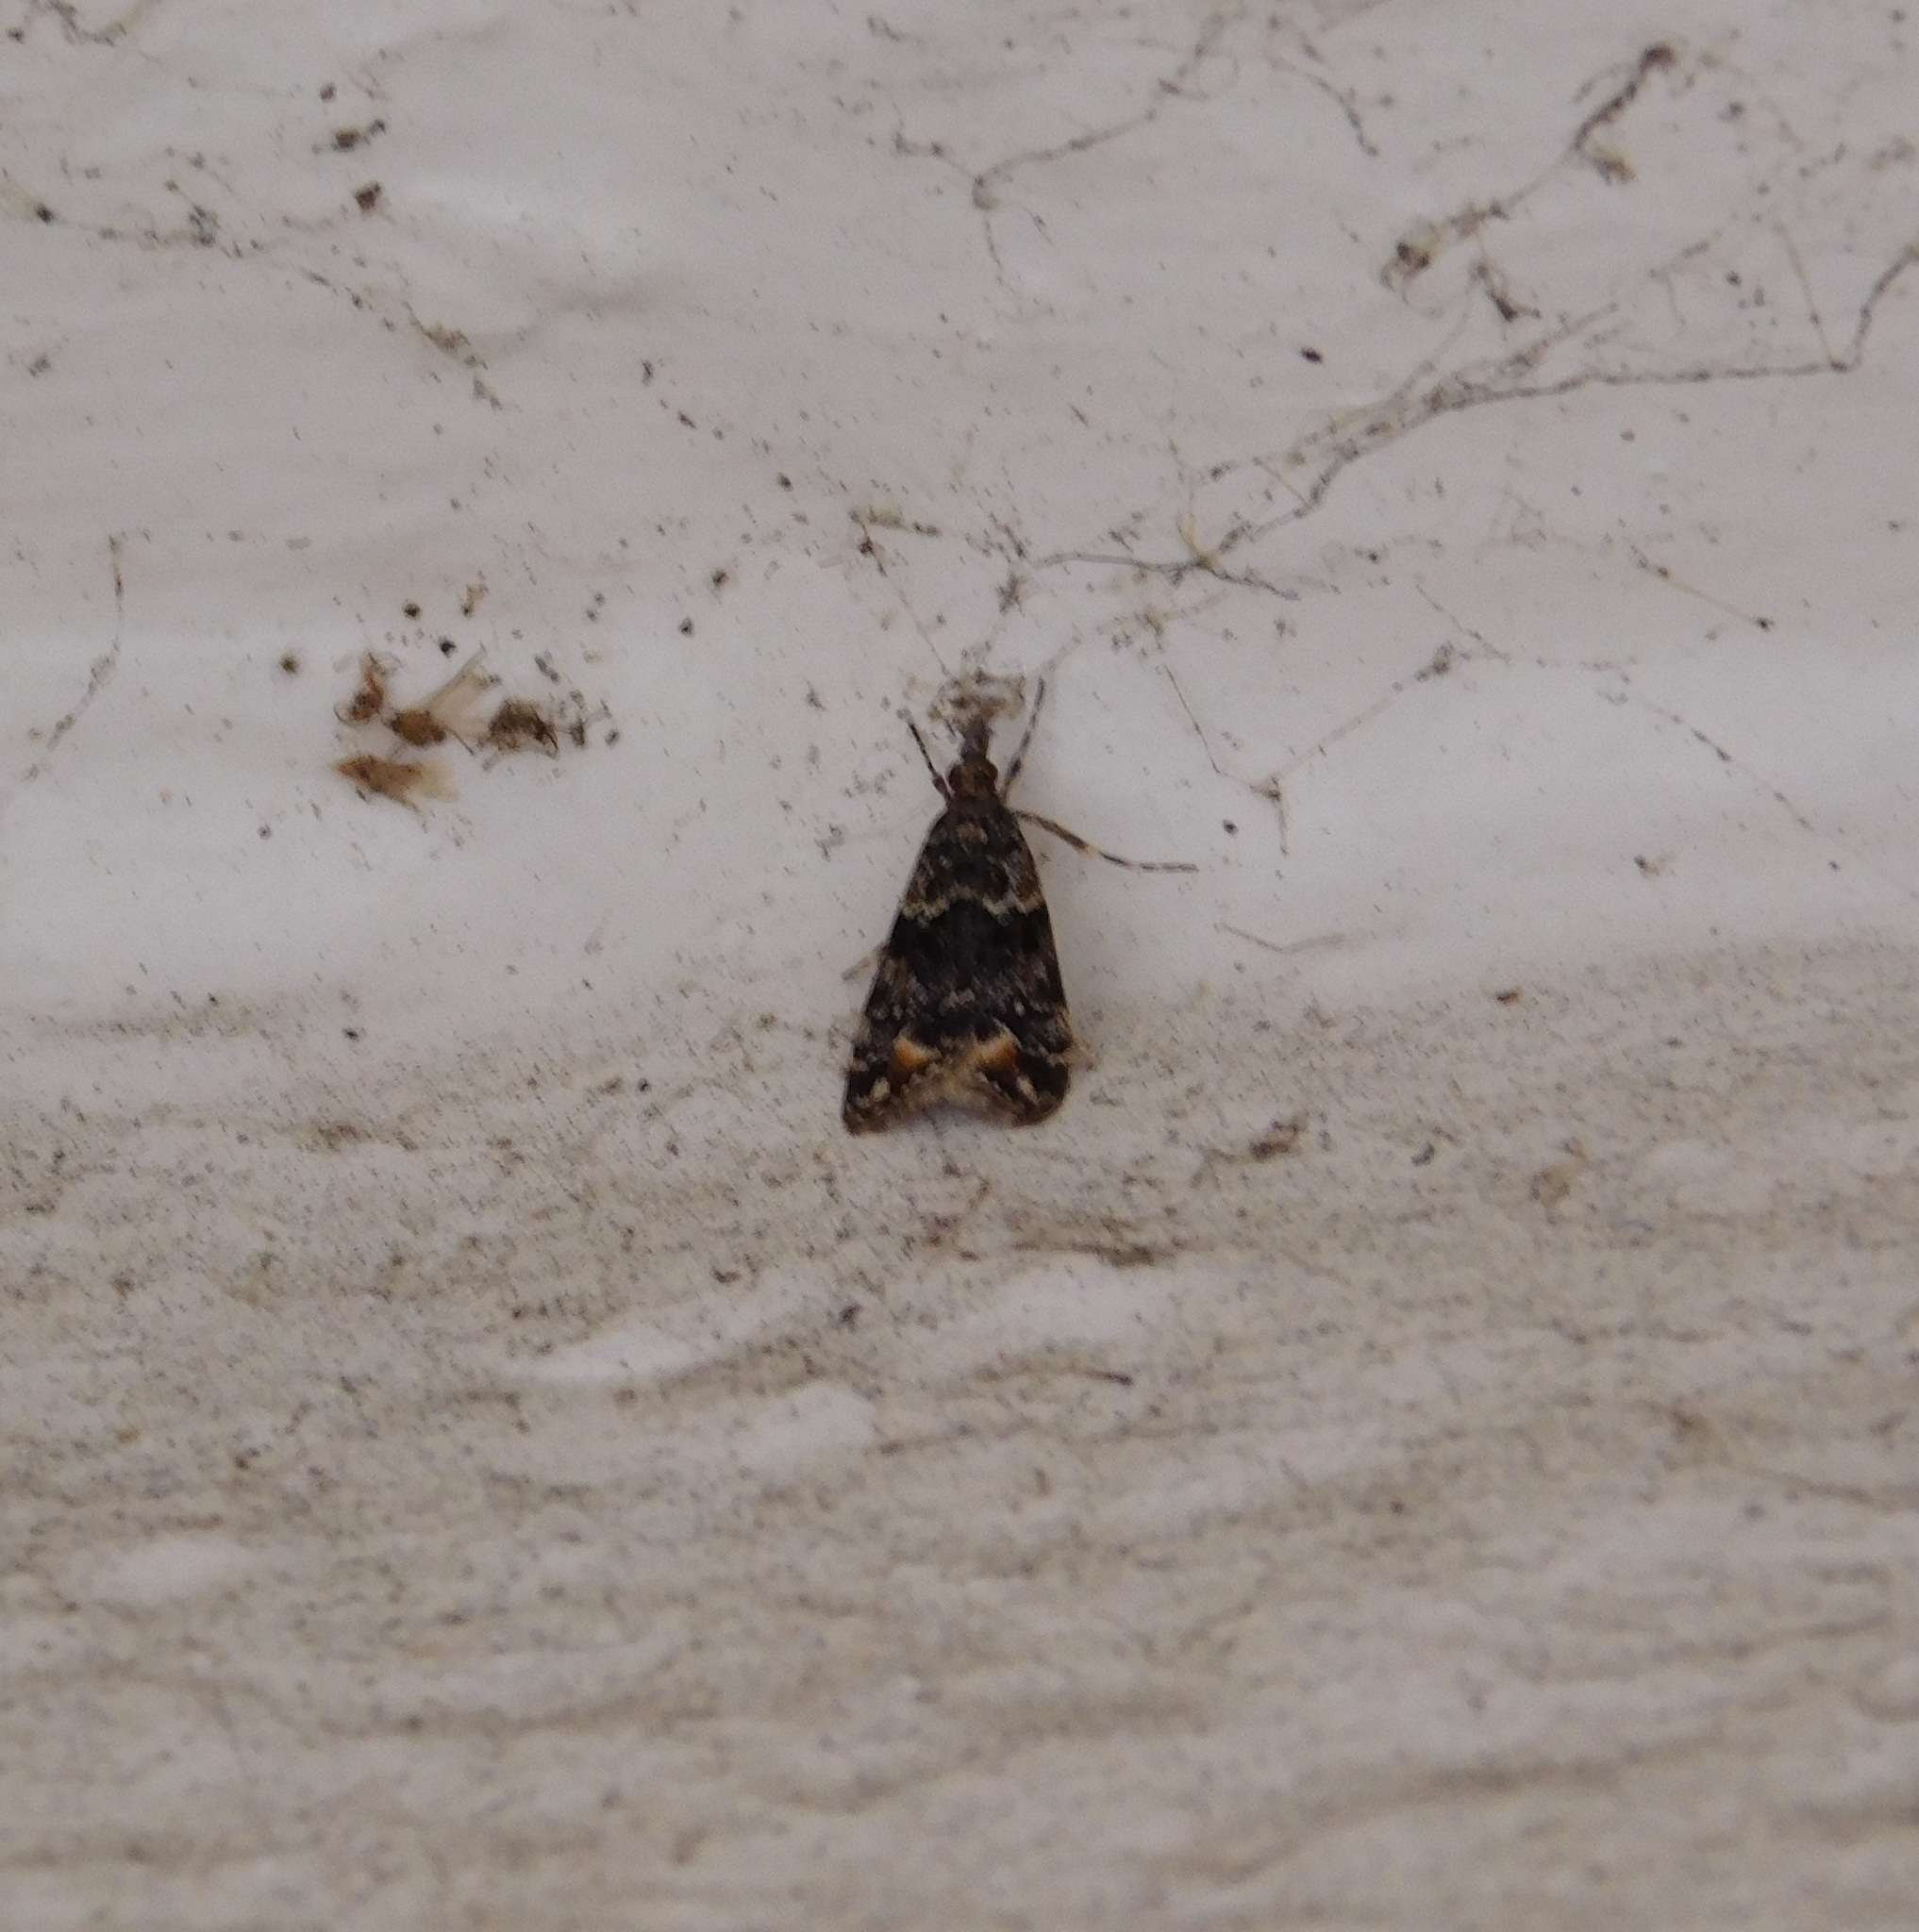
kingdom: Animalia
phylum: Arthropoda
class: Insecta
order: Lepidoptera
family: Crambidae
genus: Eudonia
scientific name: Eudonia minualis
